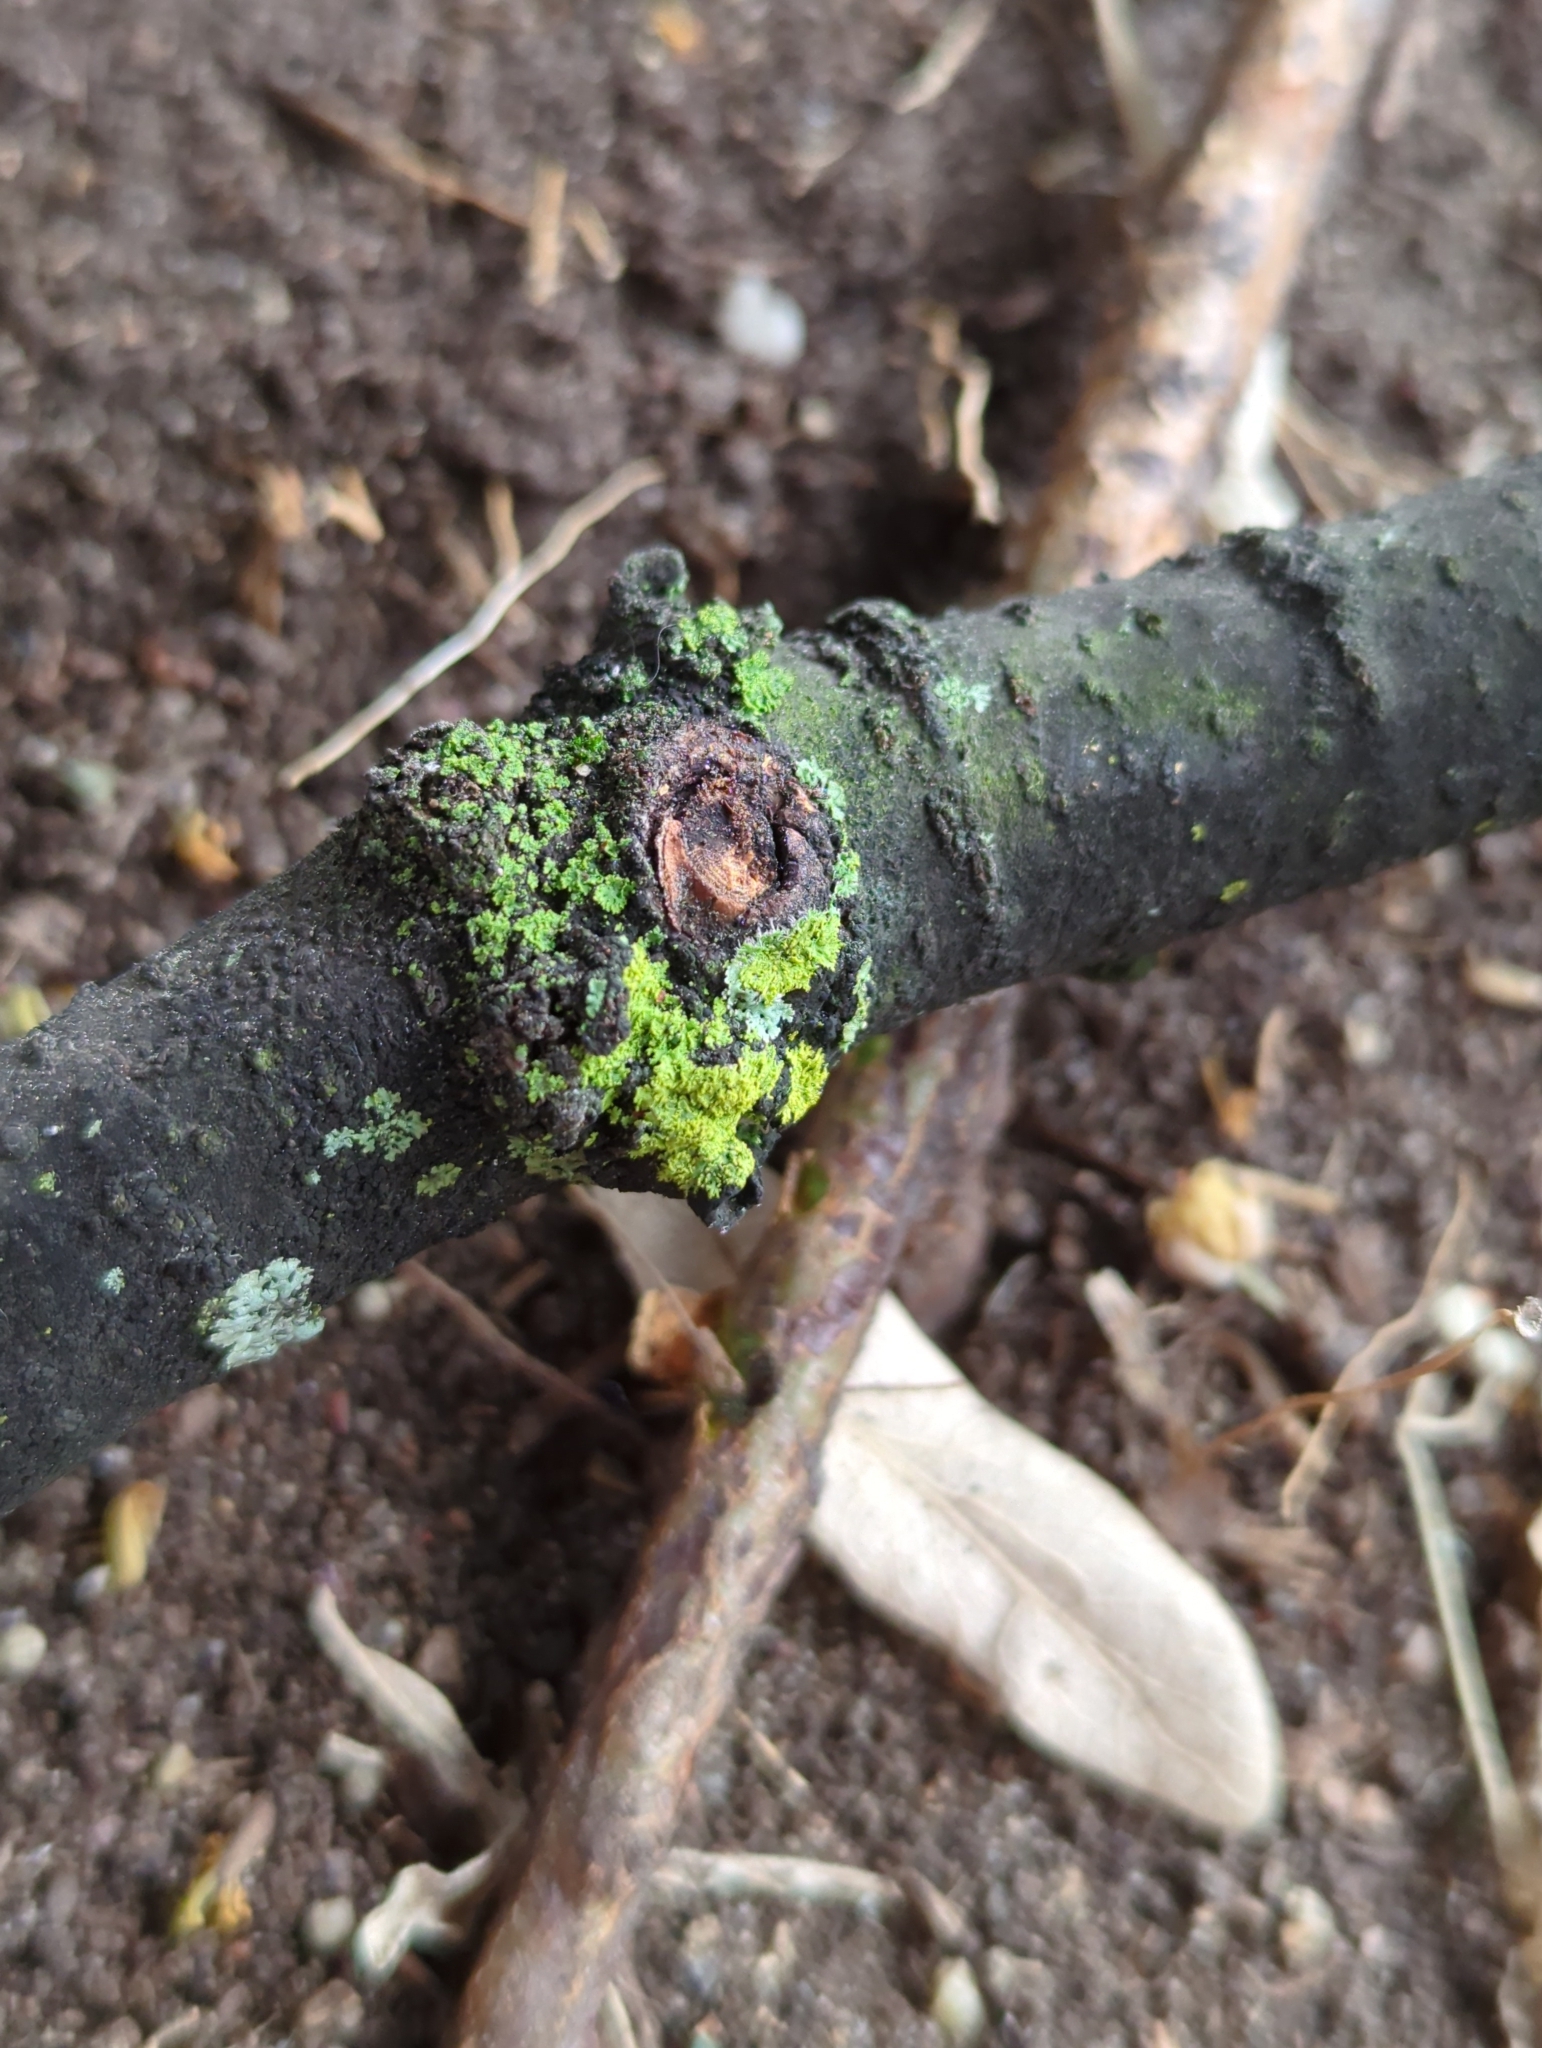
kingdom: Fungi
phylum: Ascomycota
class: Candelariomycetes
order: Candelariales
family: Candelariaceae
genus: Candelaria
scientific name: Candelaria concolor
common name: Candleflame lichen
